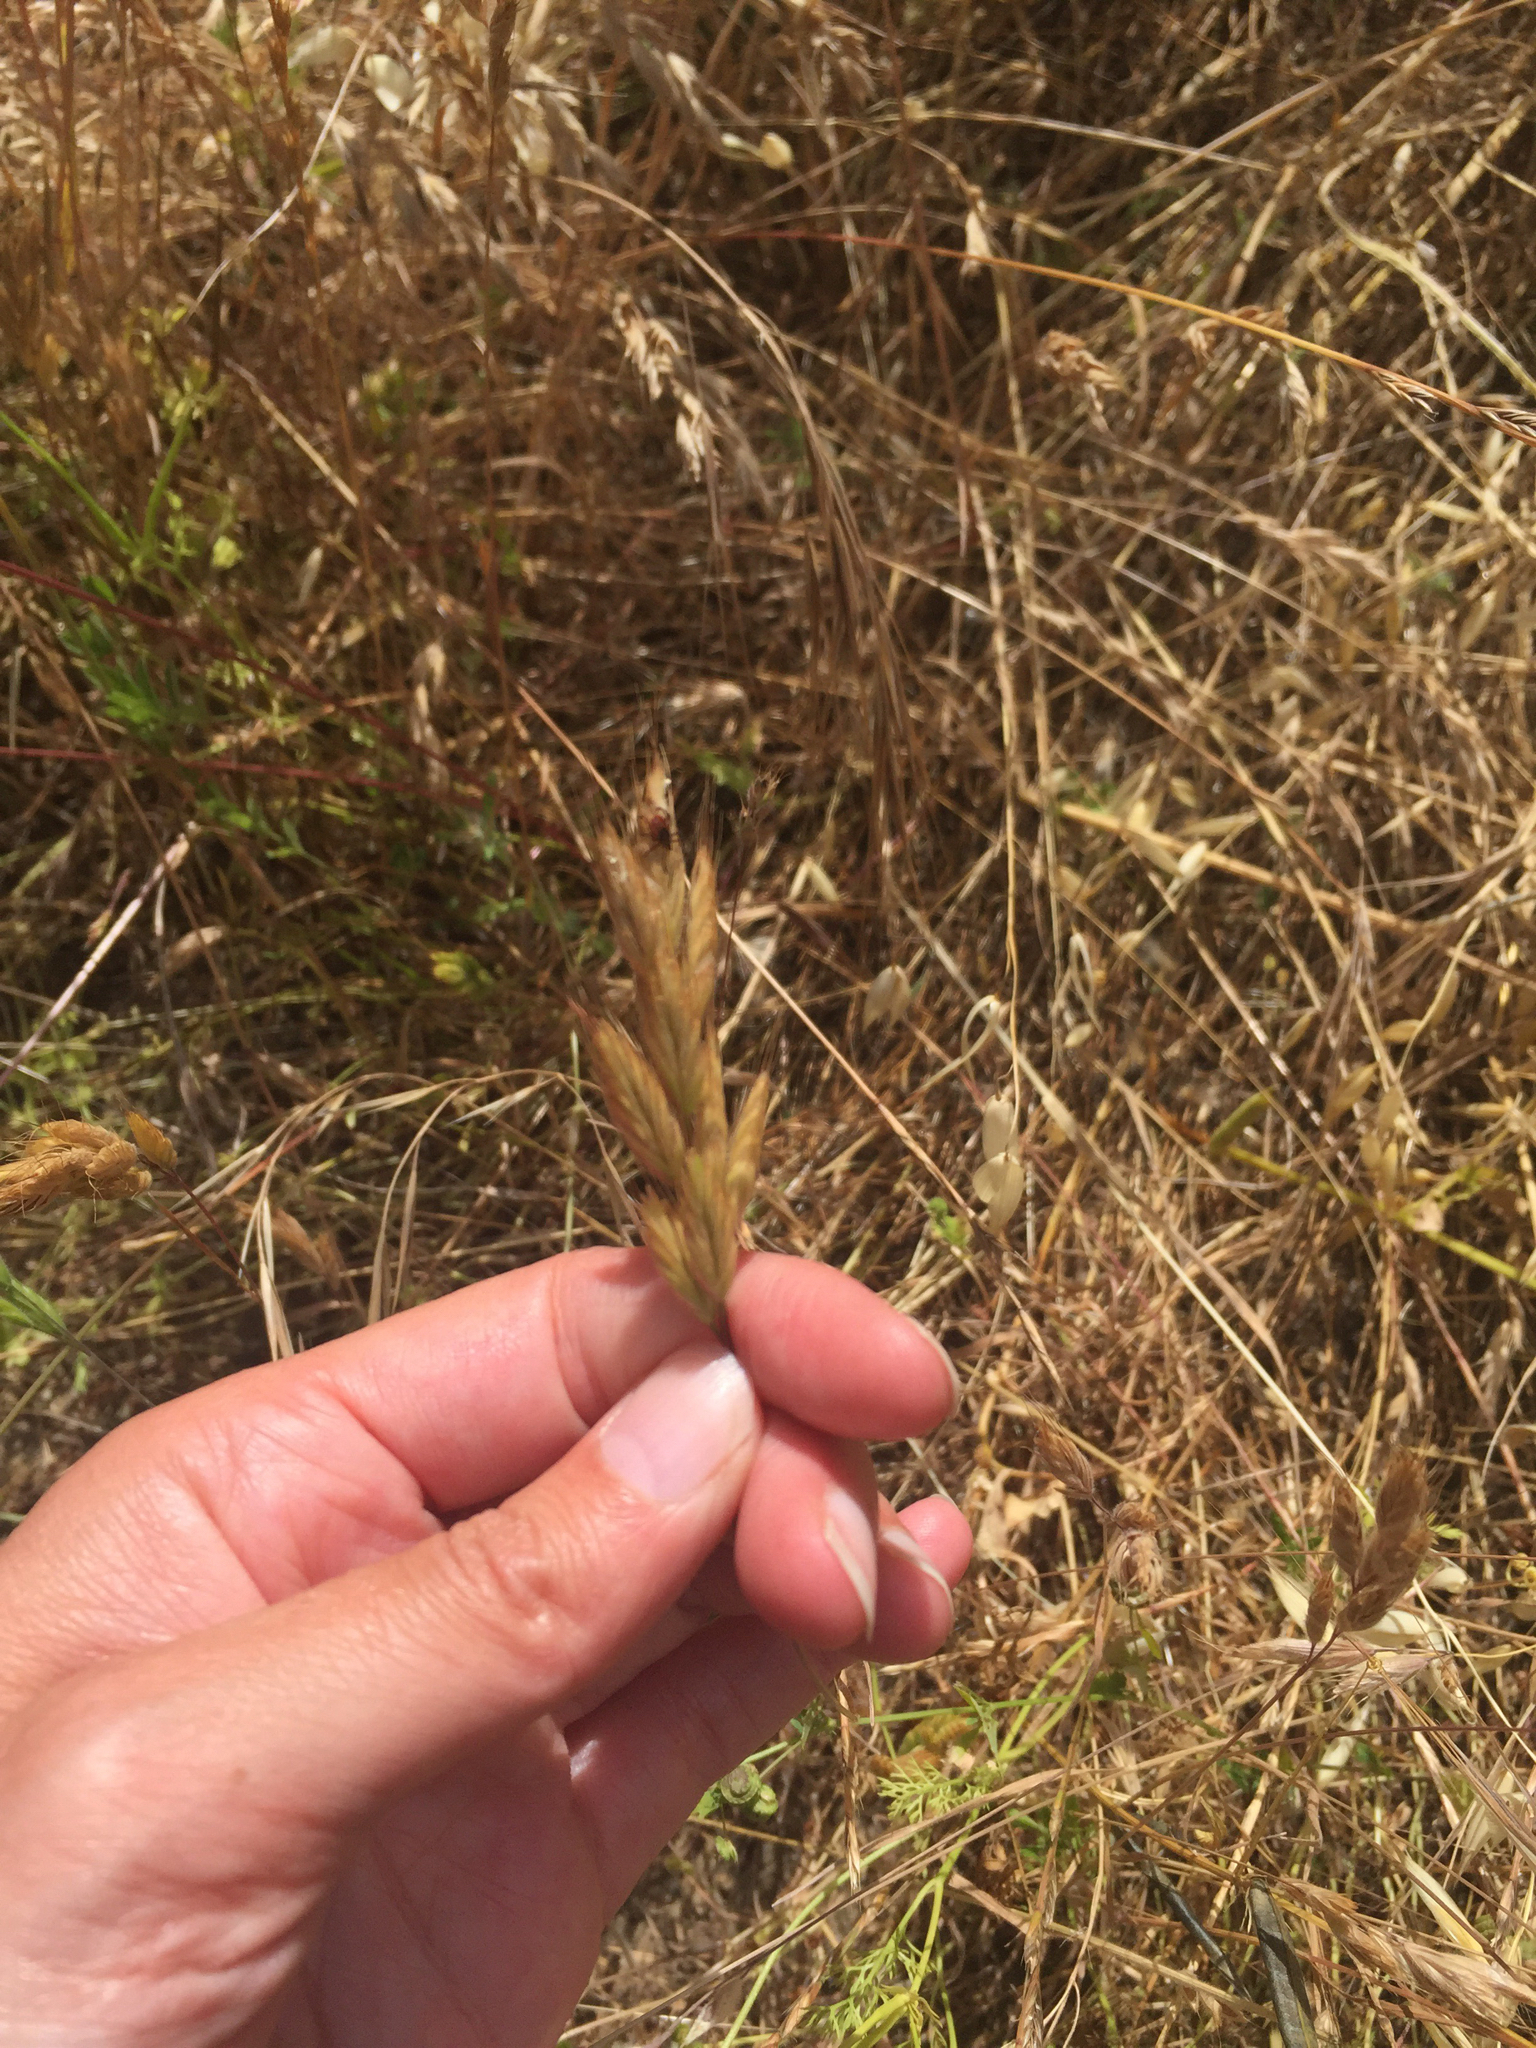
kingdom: Plantae
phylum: Tracheophyta
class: Liliopsida
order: Poales
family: Poaceae
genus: Bromus
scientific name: Bromus hordeaceus
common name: Soft brome
